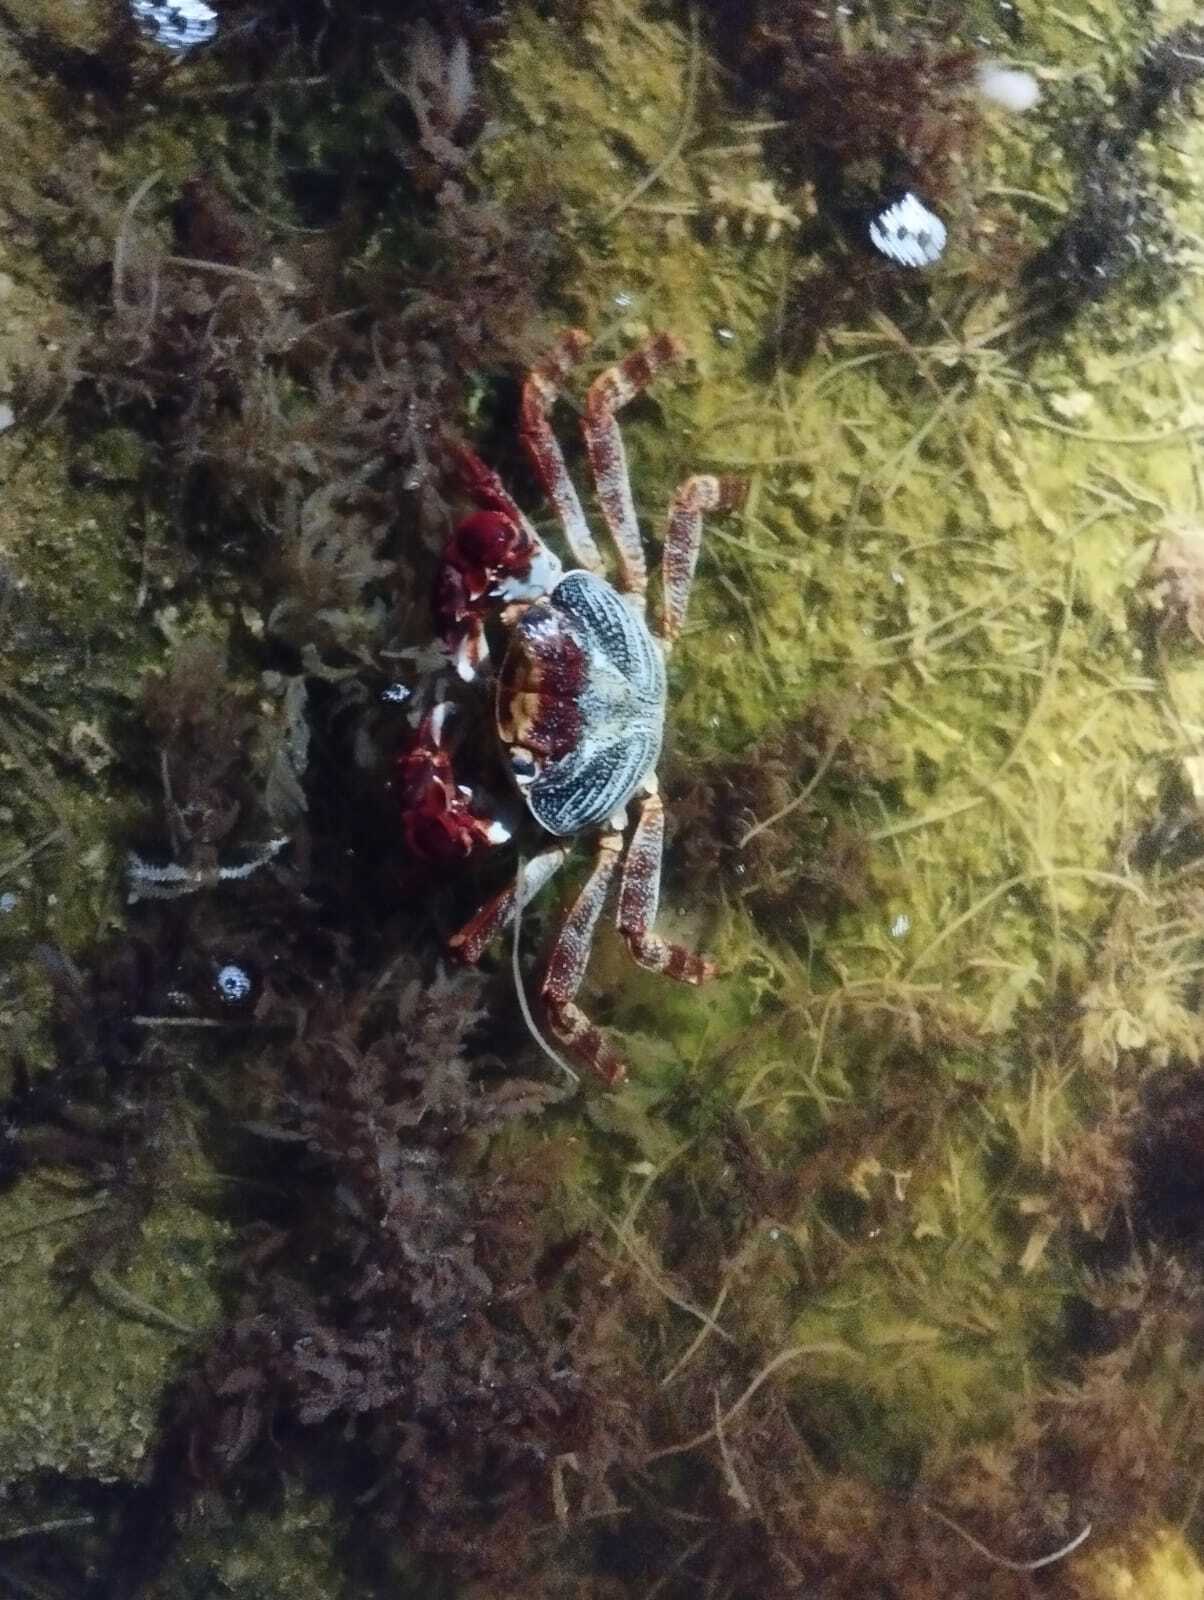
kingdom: Animalia
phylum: Arthropoda
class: Malacostraca
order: Decapoda
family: Grapsidae
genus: Grapsus
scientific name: Grapsus grapsus
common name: Sally lightfoot
